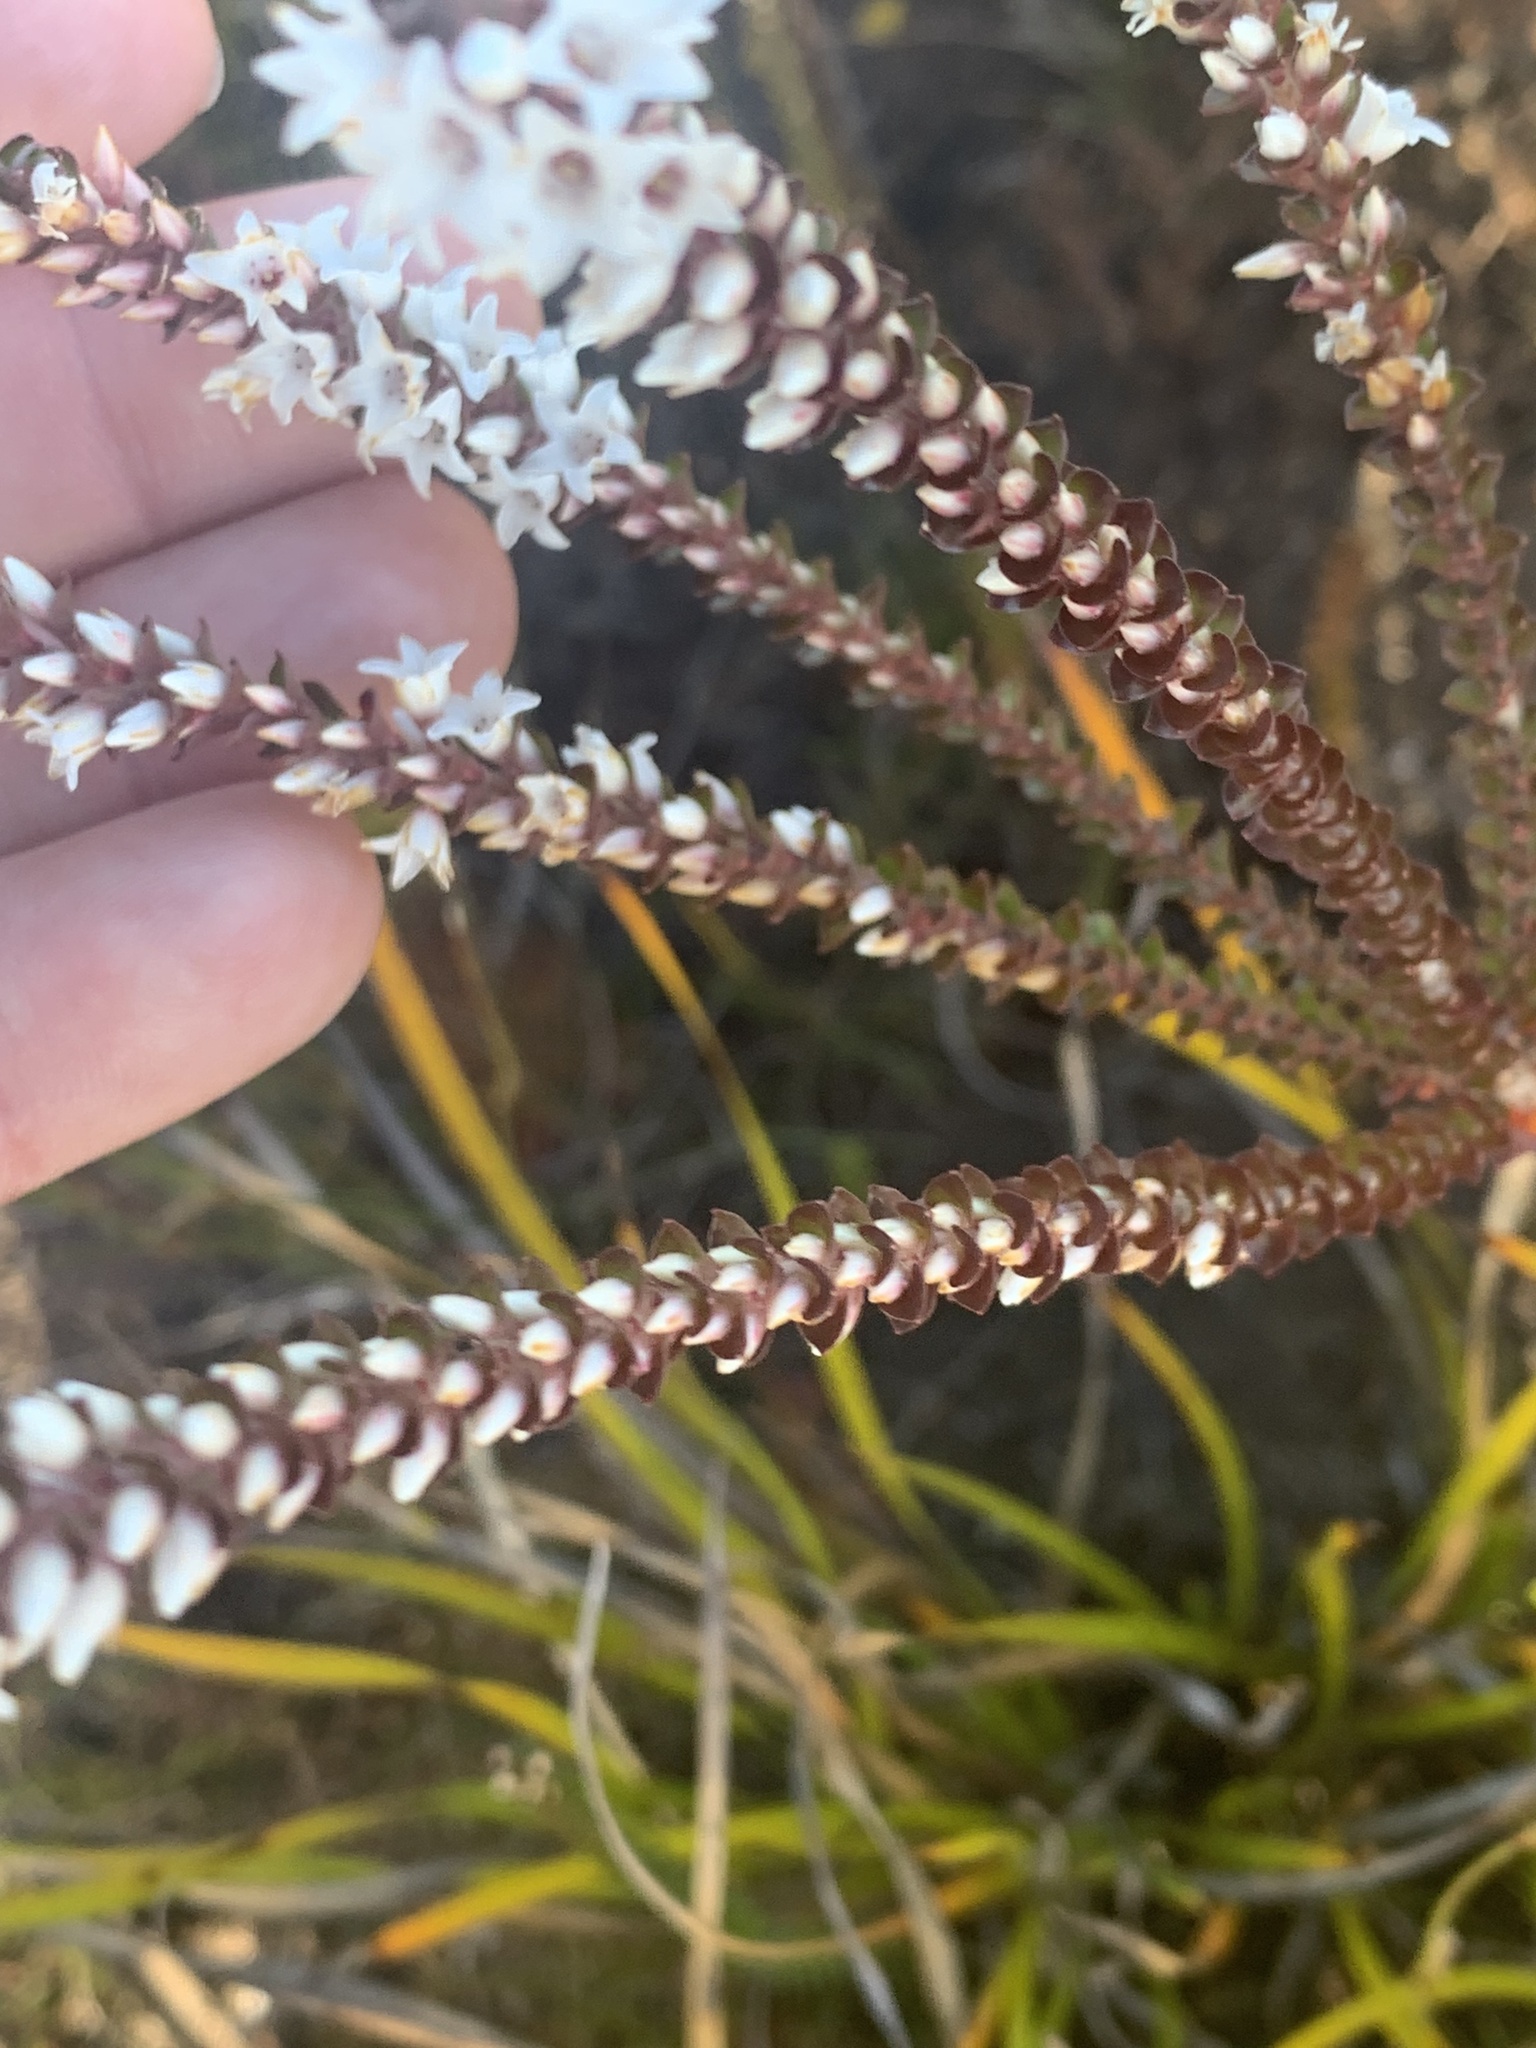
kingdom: Plantae
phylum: Tracheophyta
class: Magnoliopsida
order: Ericales
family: Ericaceae
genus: Epacris
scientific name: Epacris microphylla
